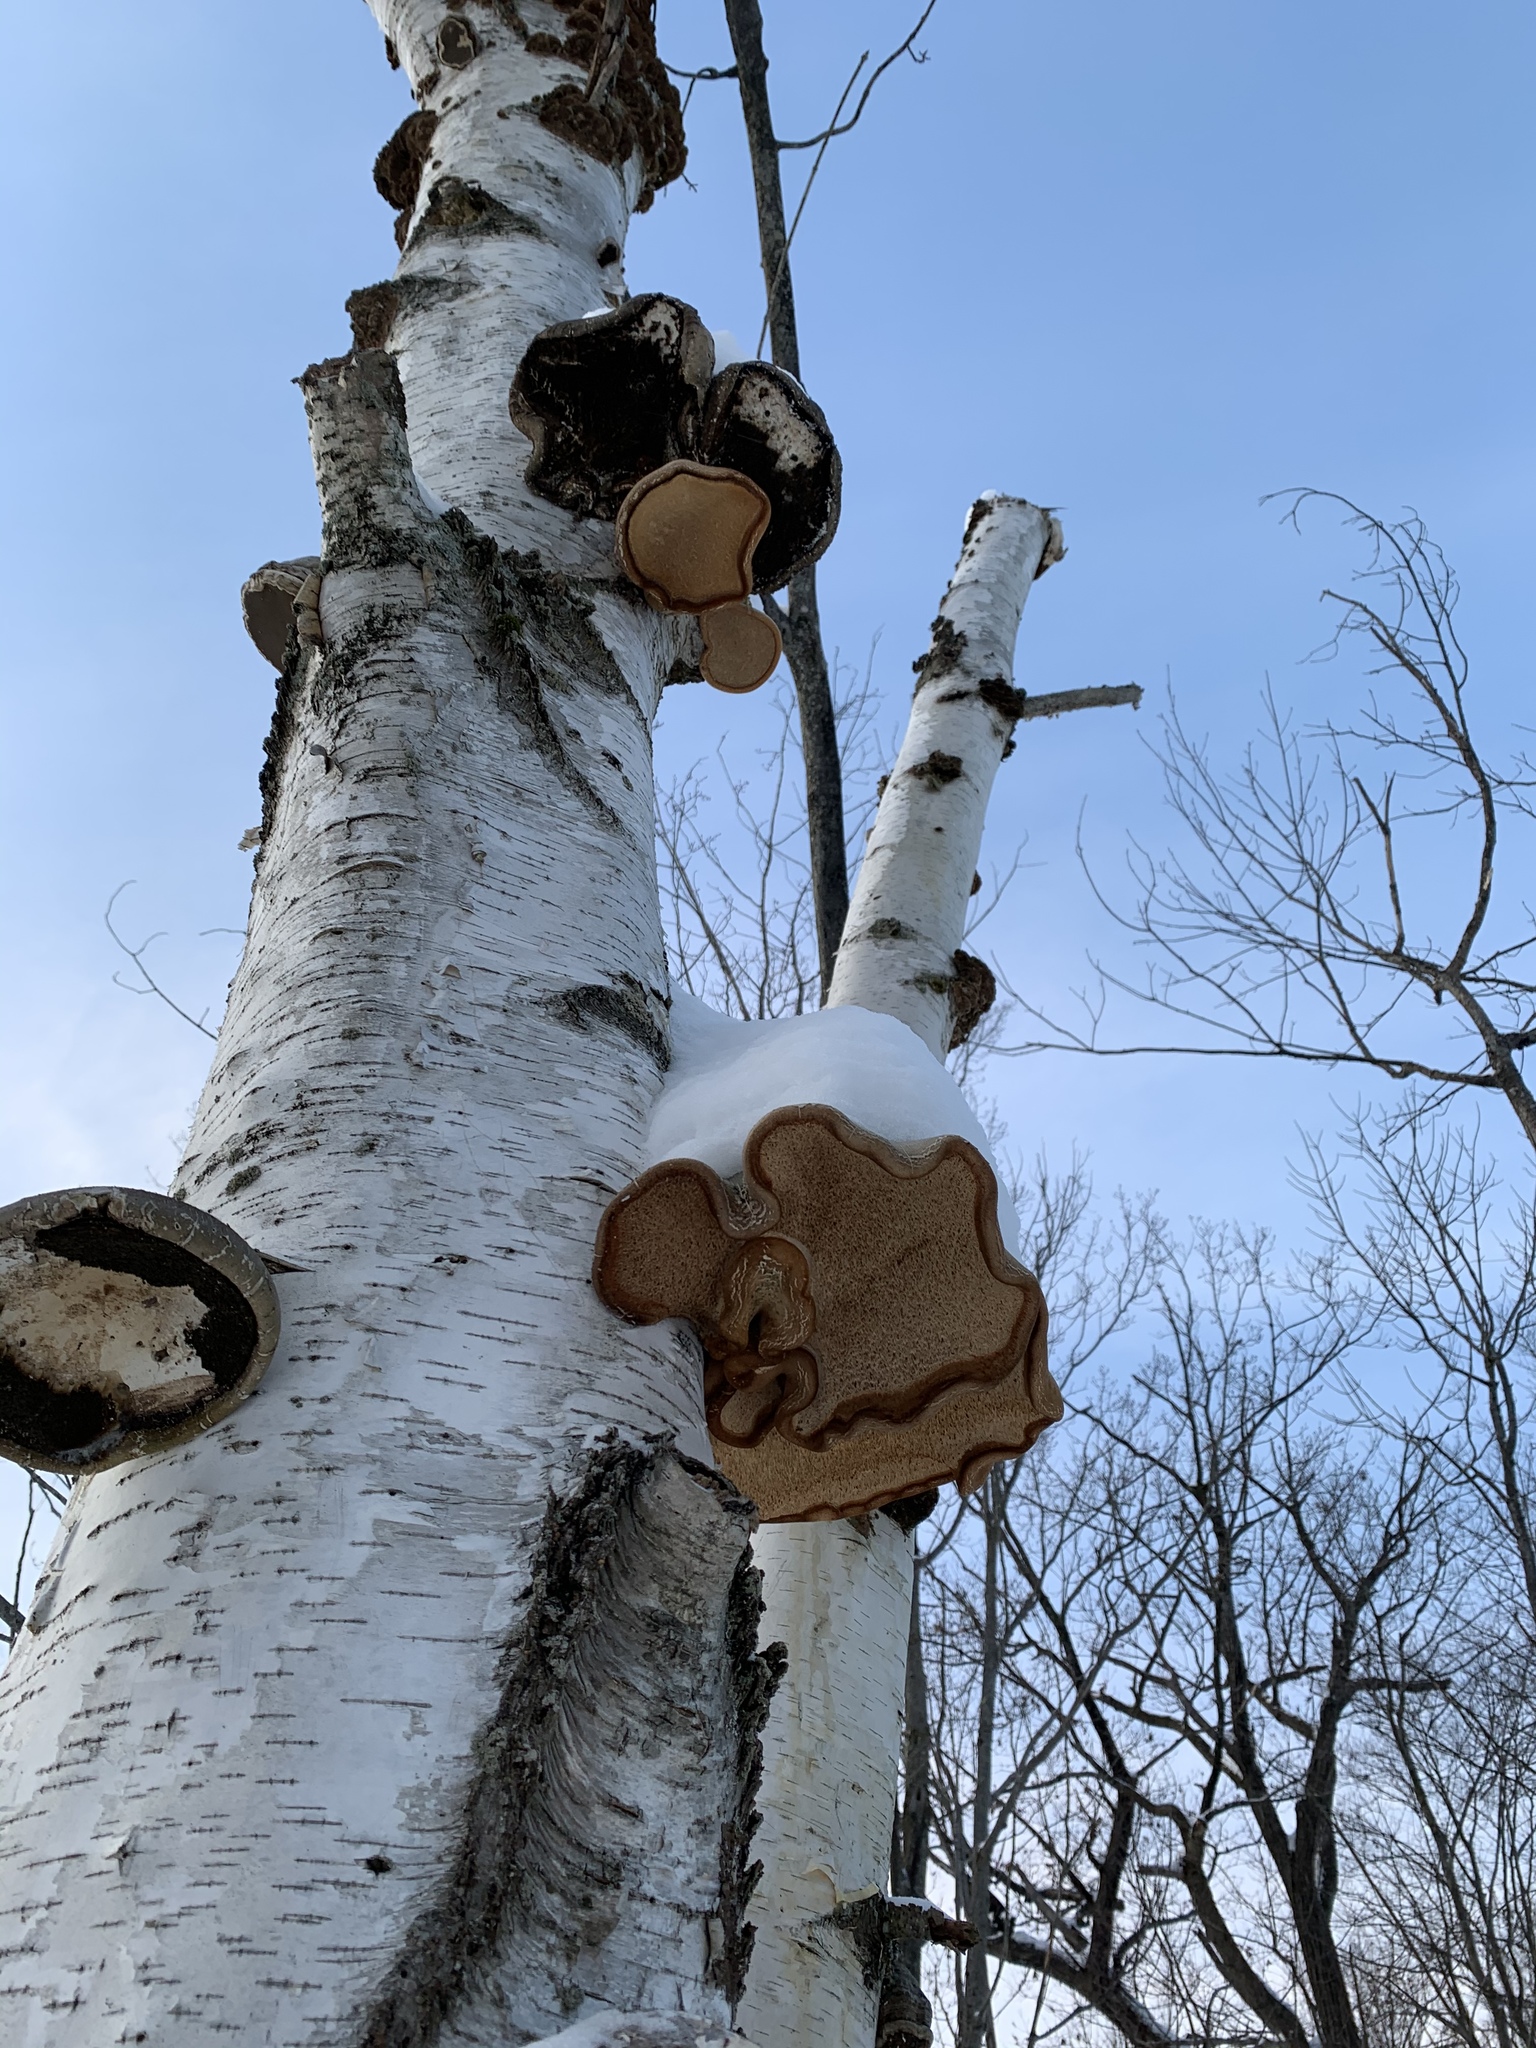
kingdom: Fungi
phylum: Basidiomycota
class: Agaricomycetes
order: Polyporales
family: Fomitopsidaceae
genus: Fomitopsis
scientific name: Fomitopsis betulina
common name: Birch polypore
